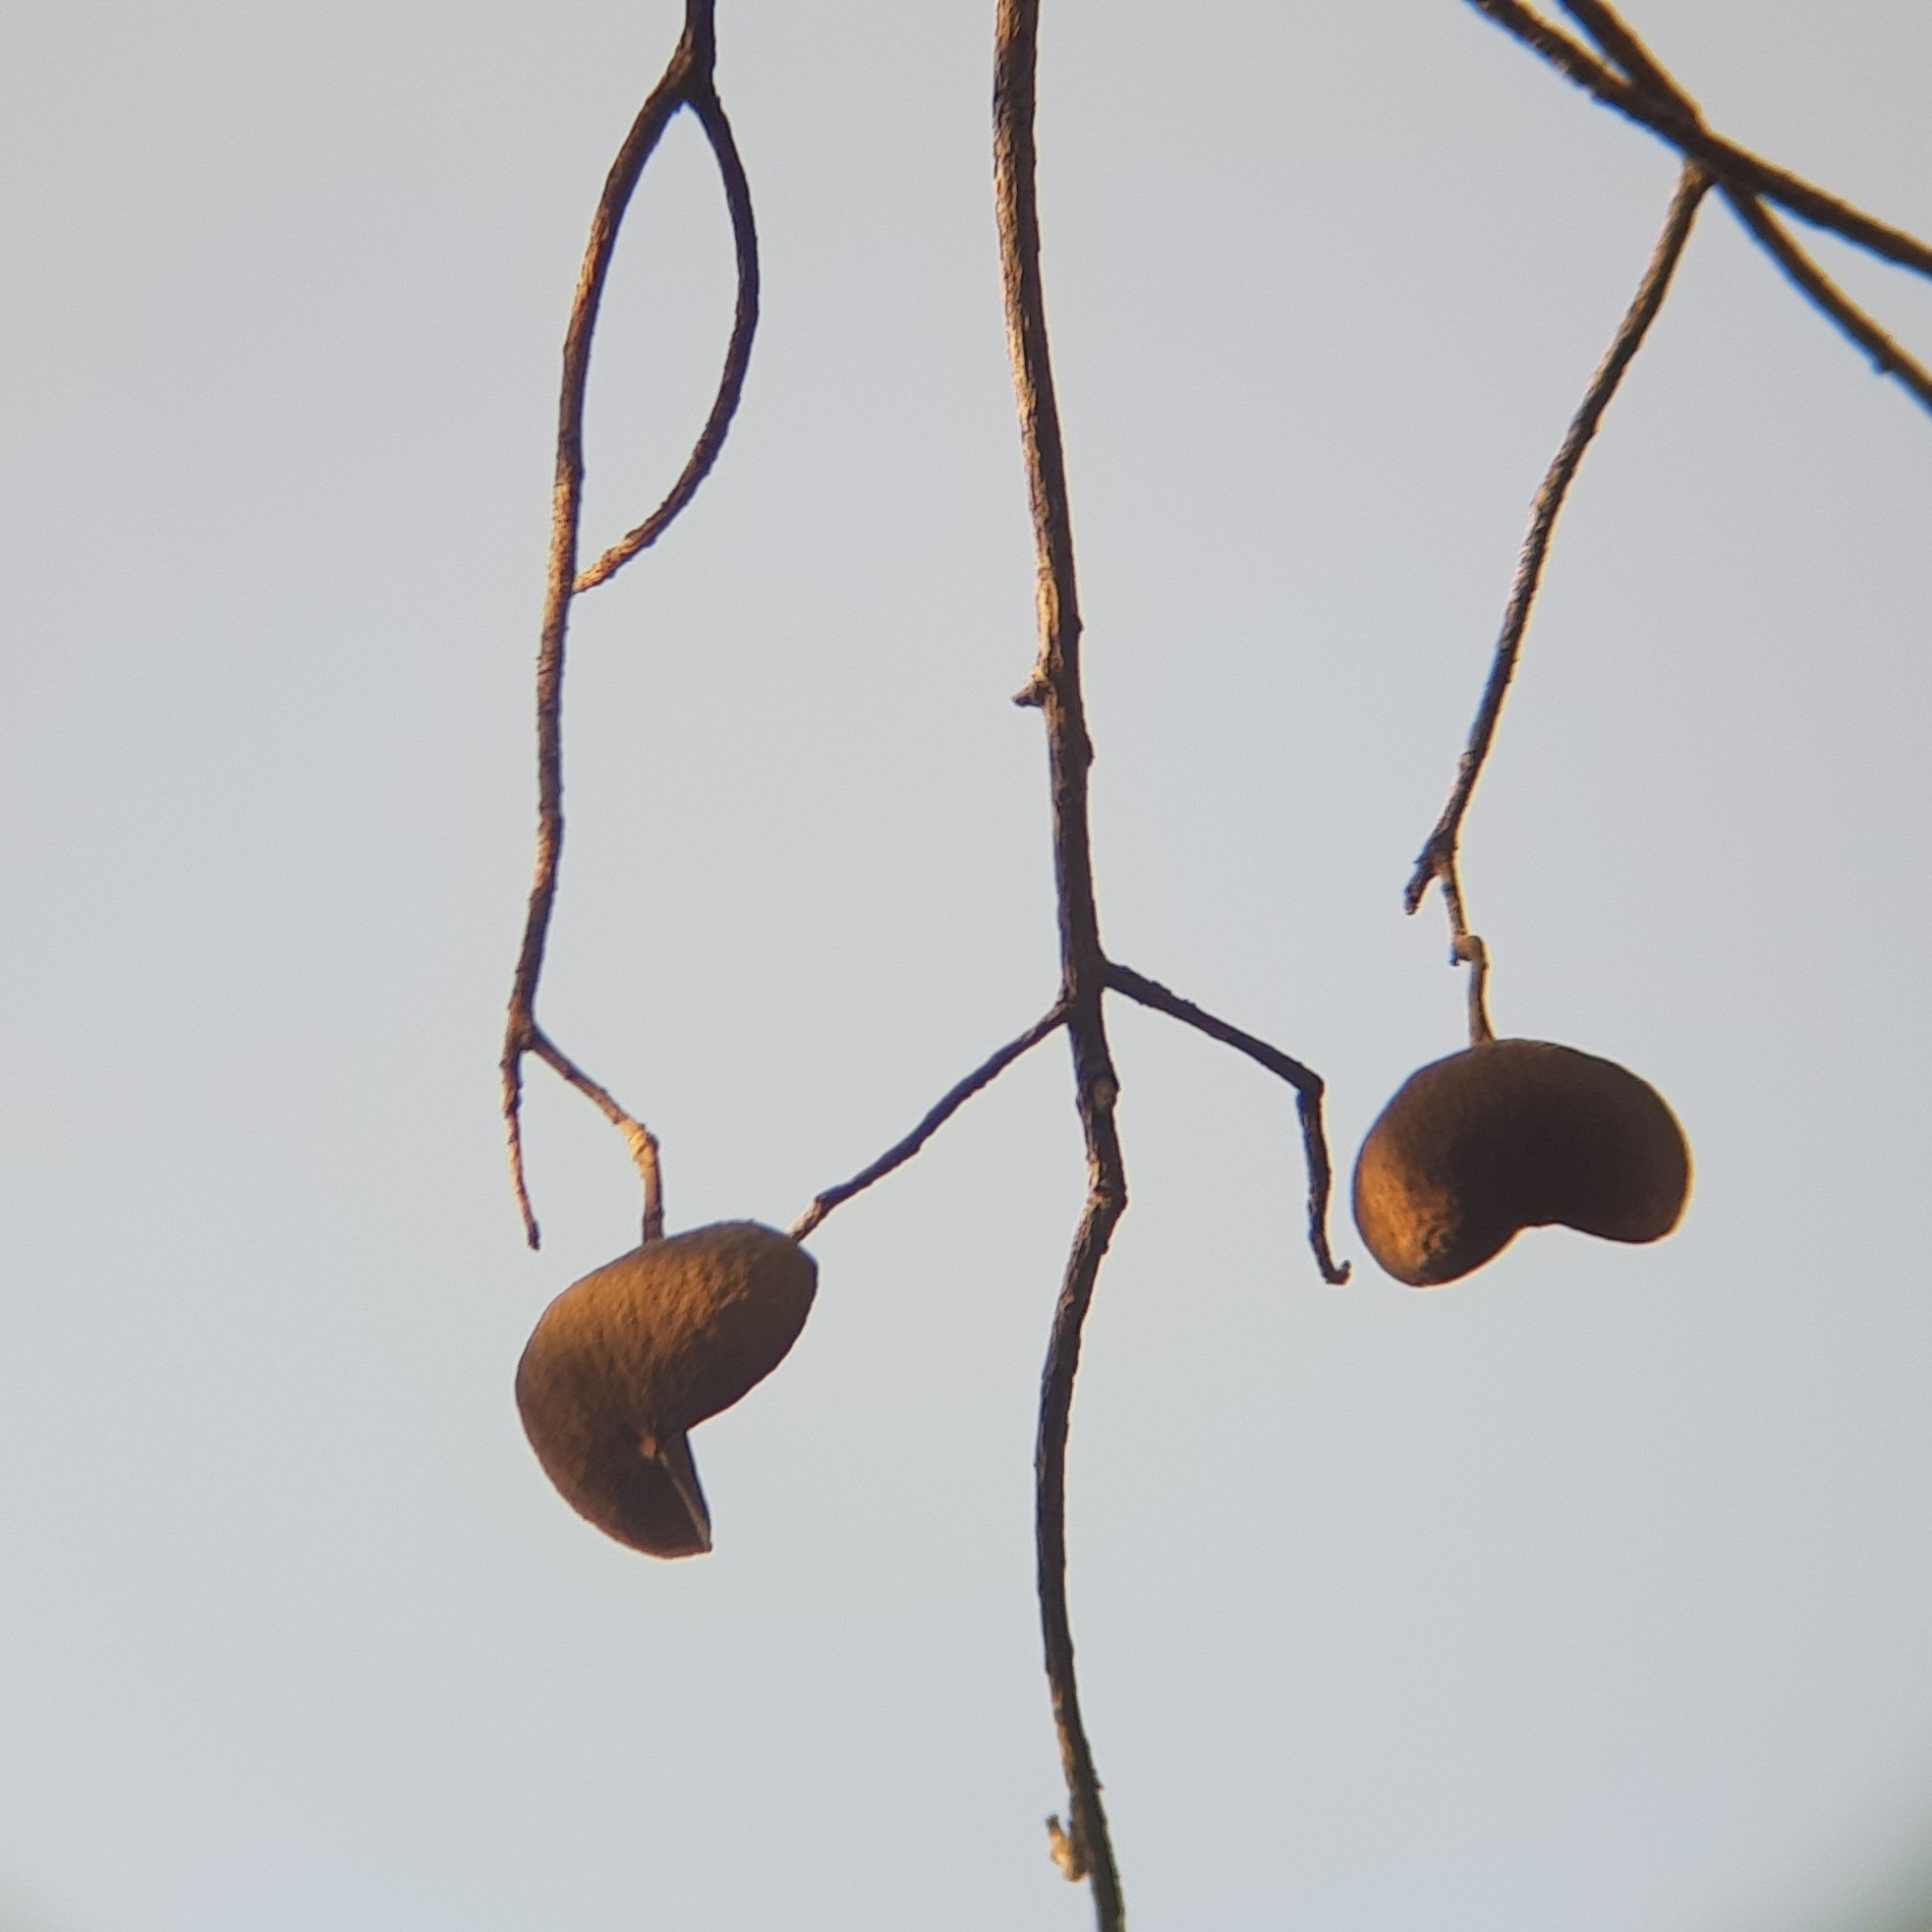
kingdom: Plantae
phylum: Tracheophyta
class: Magnoliopsida
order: Malvales
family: Malvaceae
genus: Pterygota
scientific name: Pterygota alata
